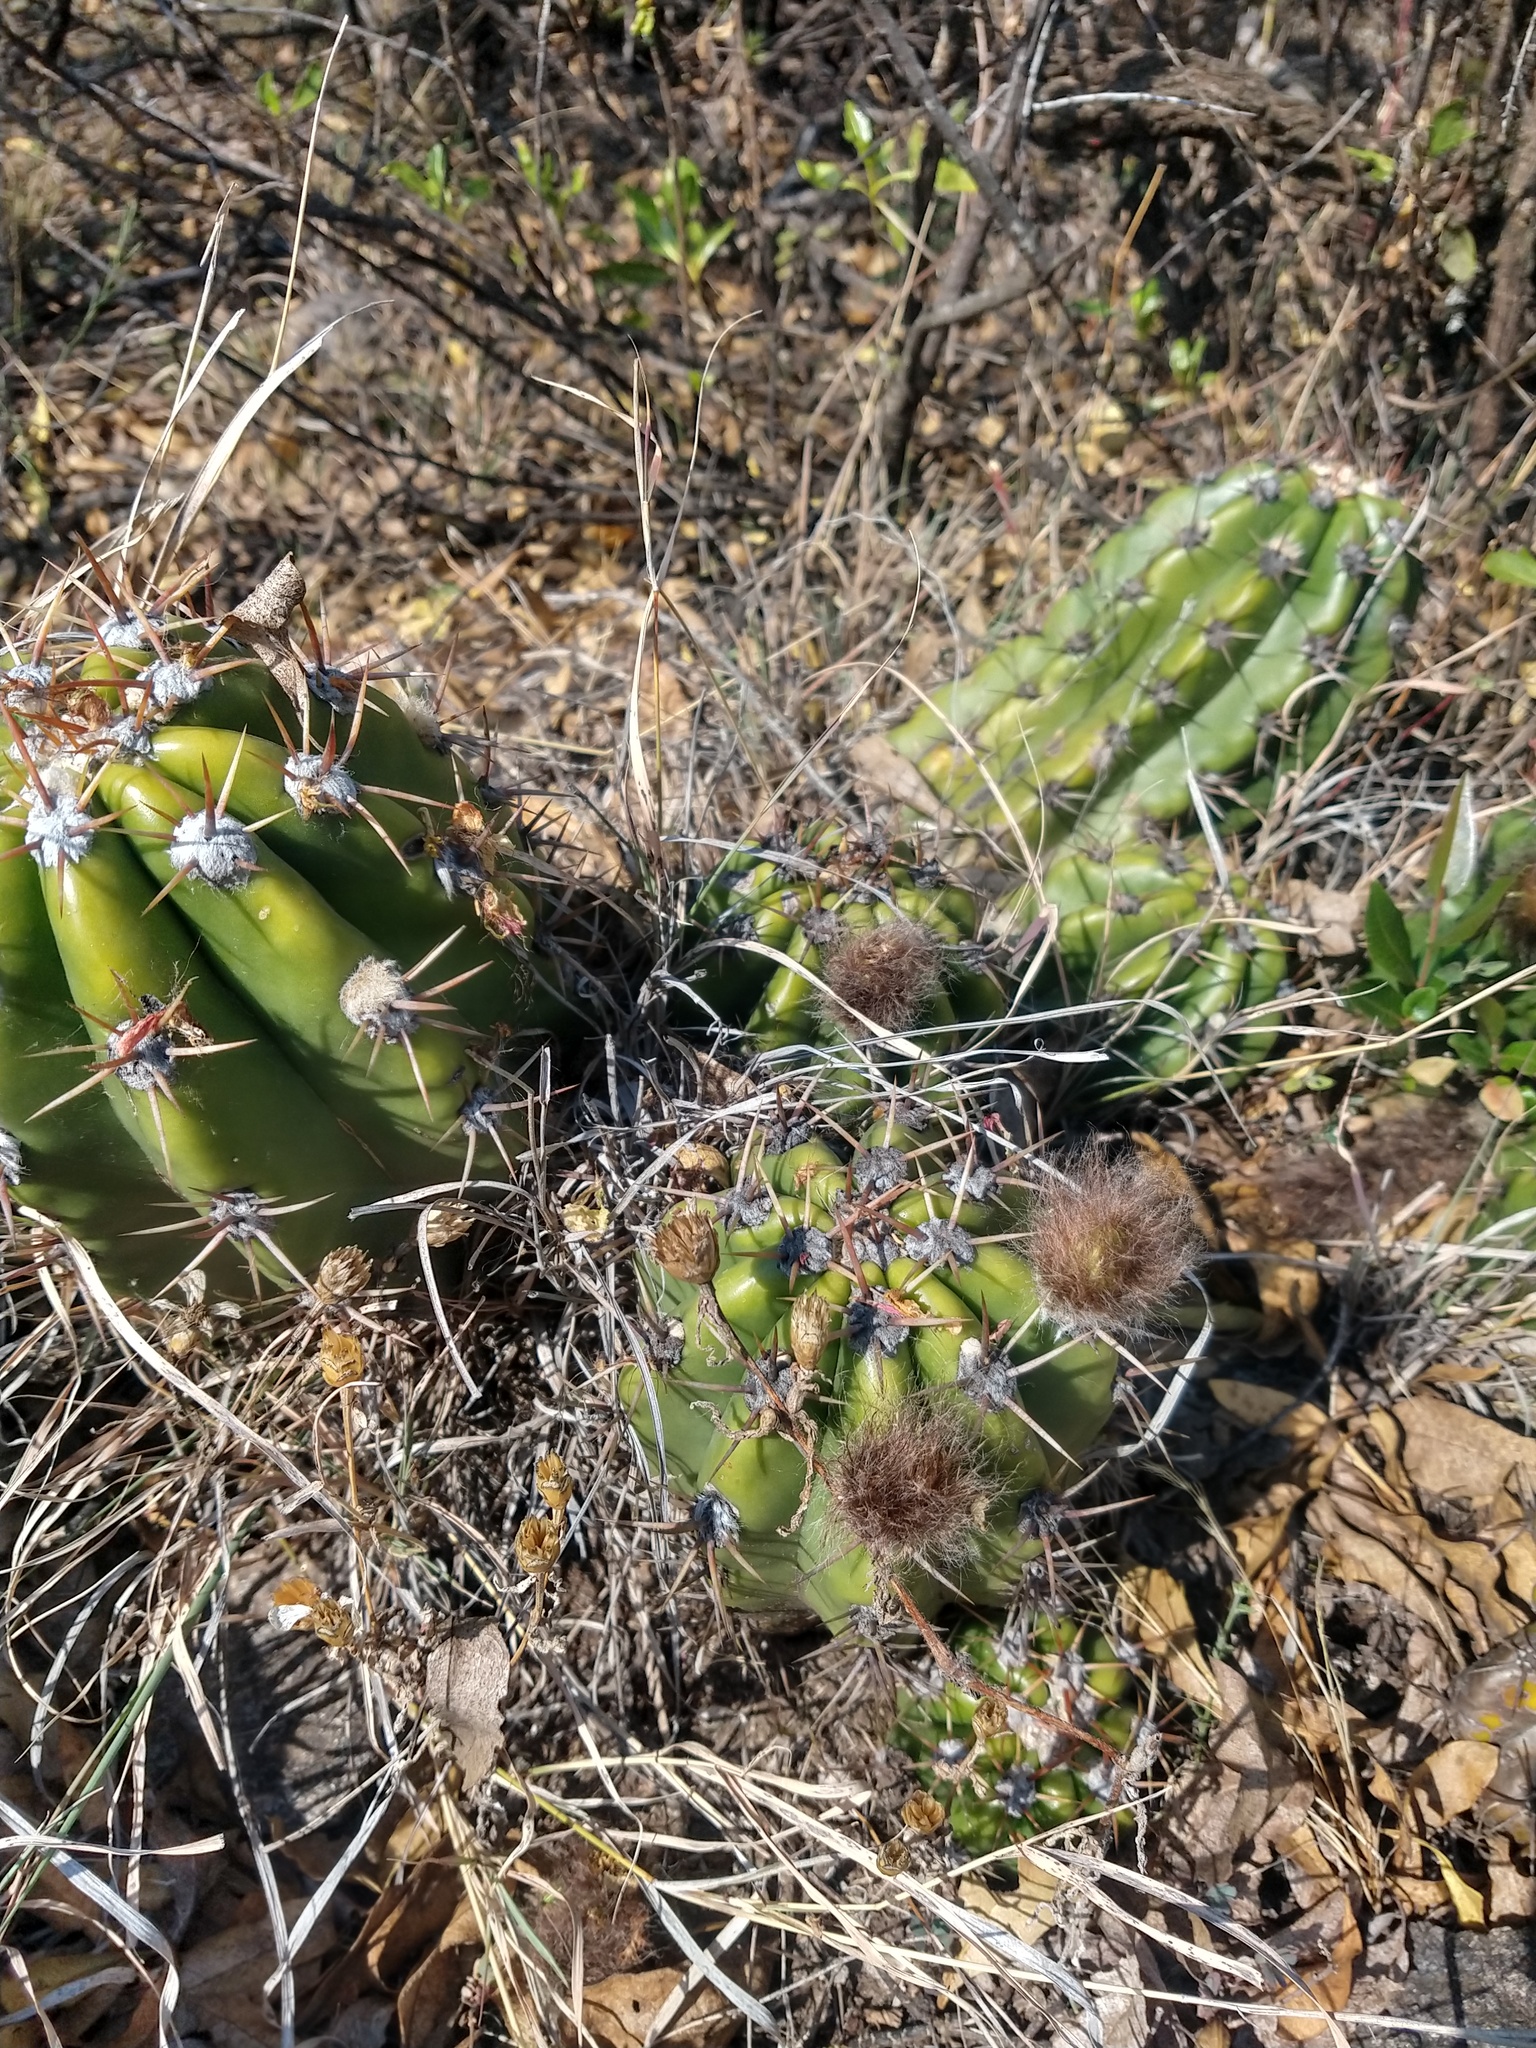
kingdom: Plantae
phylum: Tracheophyta
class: Magnoliopsida
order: Caryophyllales
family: Cactaceae
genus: Soehrensia
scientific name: Soehrensia candicans
